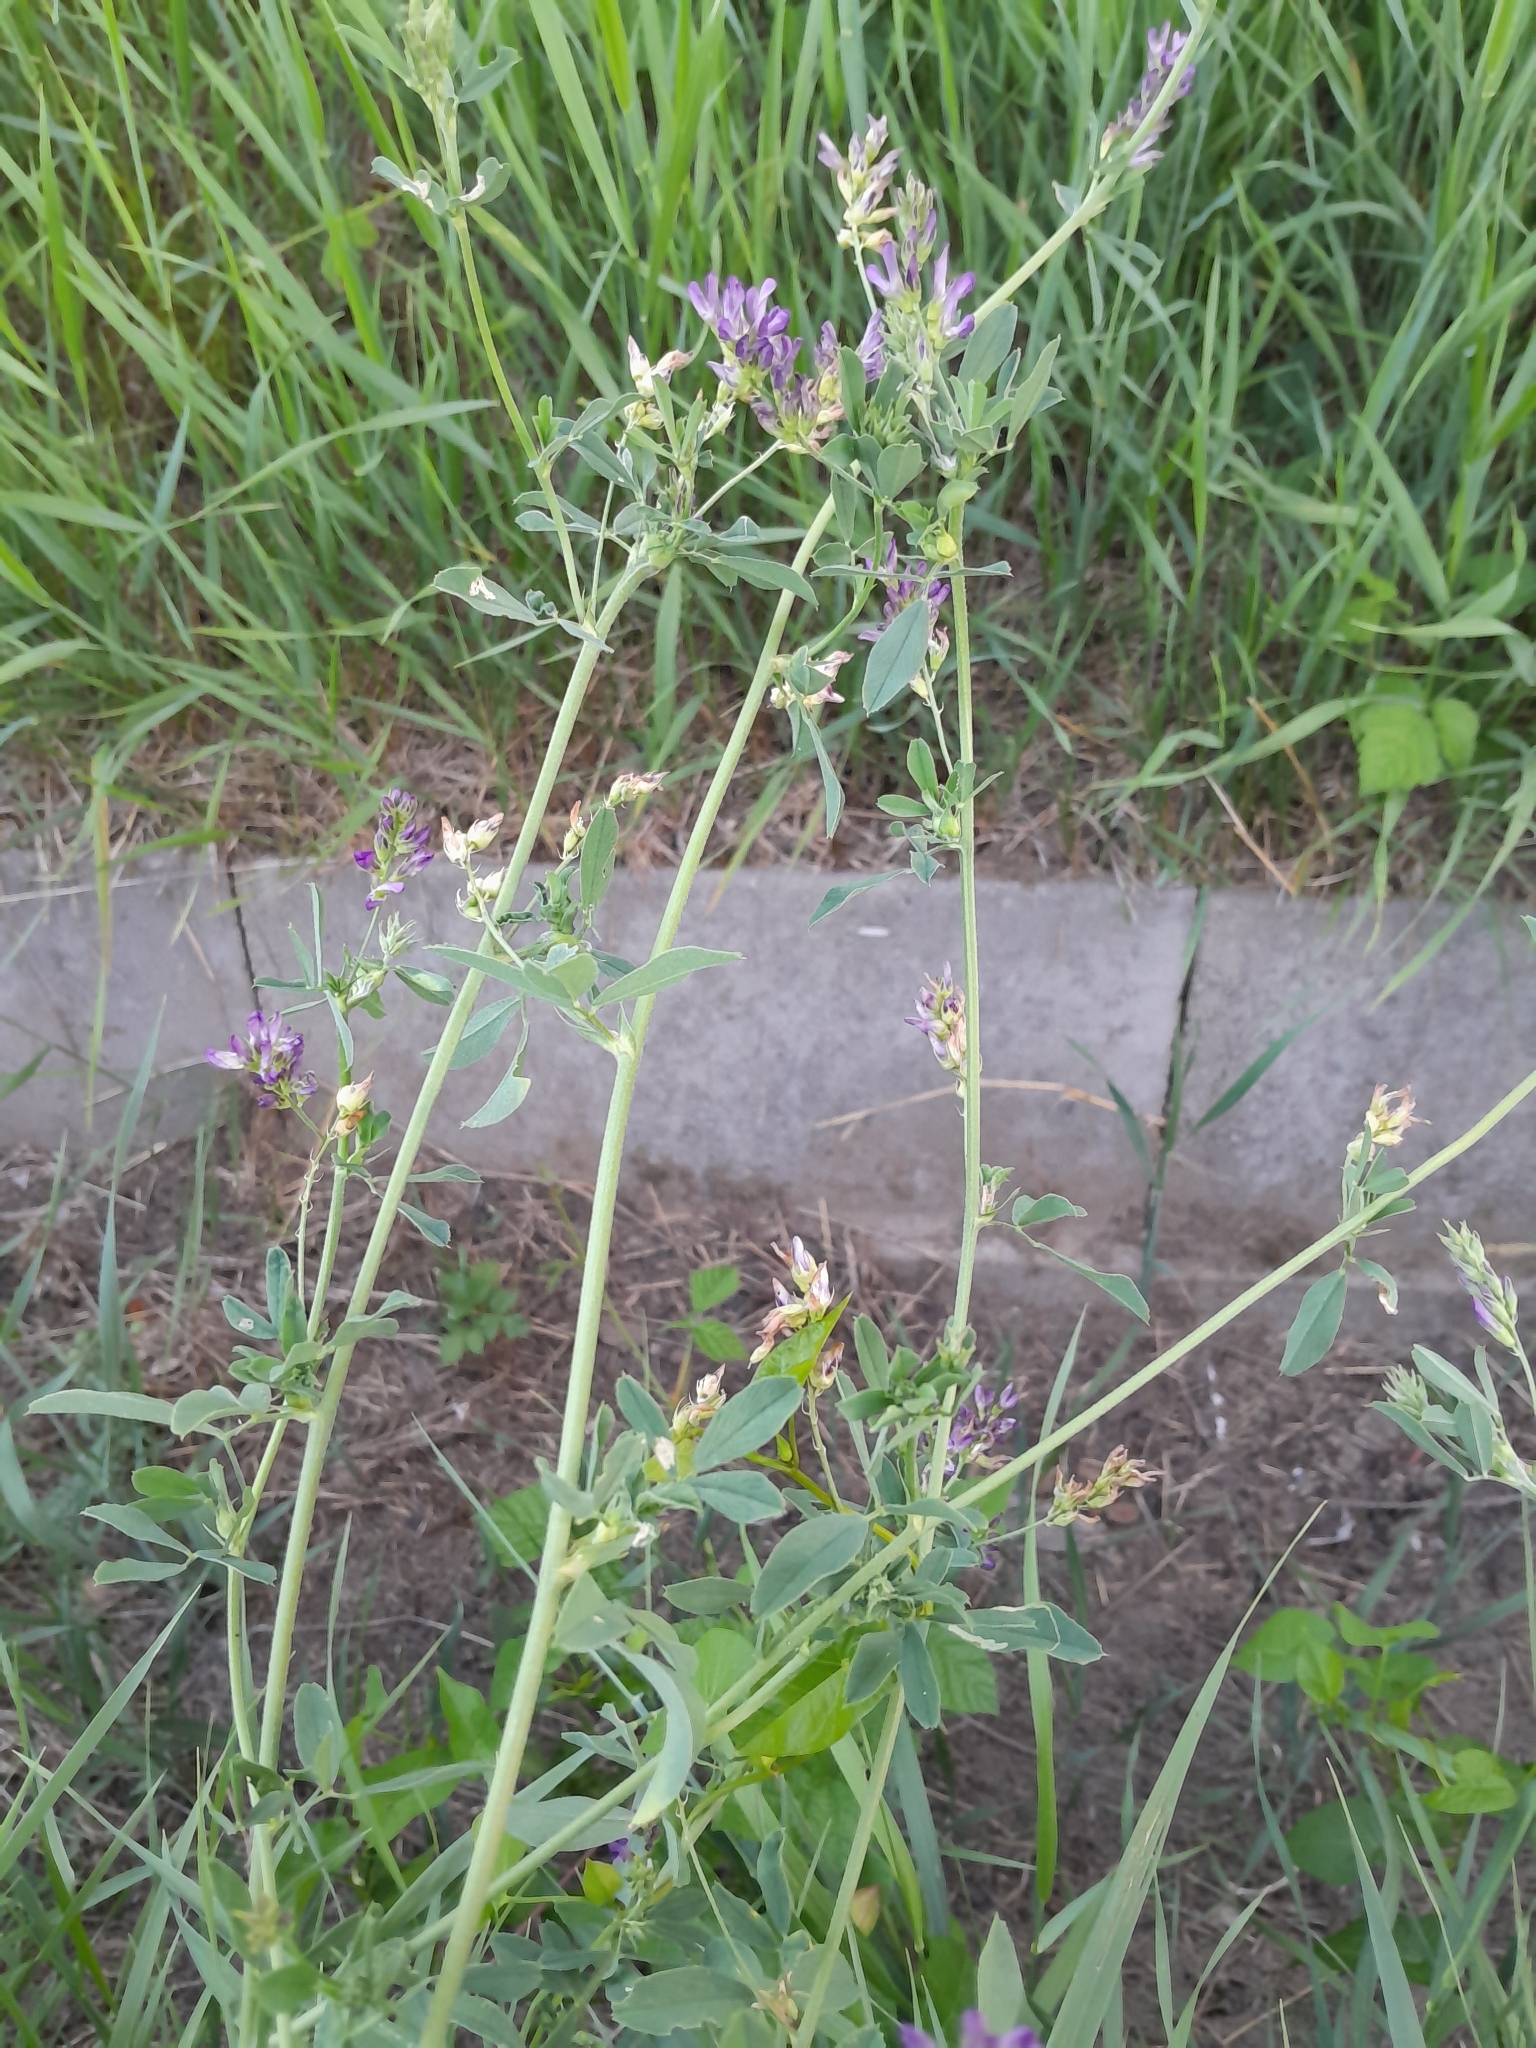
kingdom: Plantae
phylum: Tracheophyta
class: Magnoliopsida
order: Fabales
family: Fabaceae
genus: Medicago
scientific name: Medicago sativa
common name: Alfalfa
